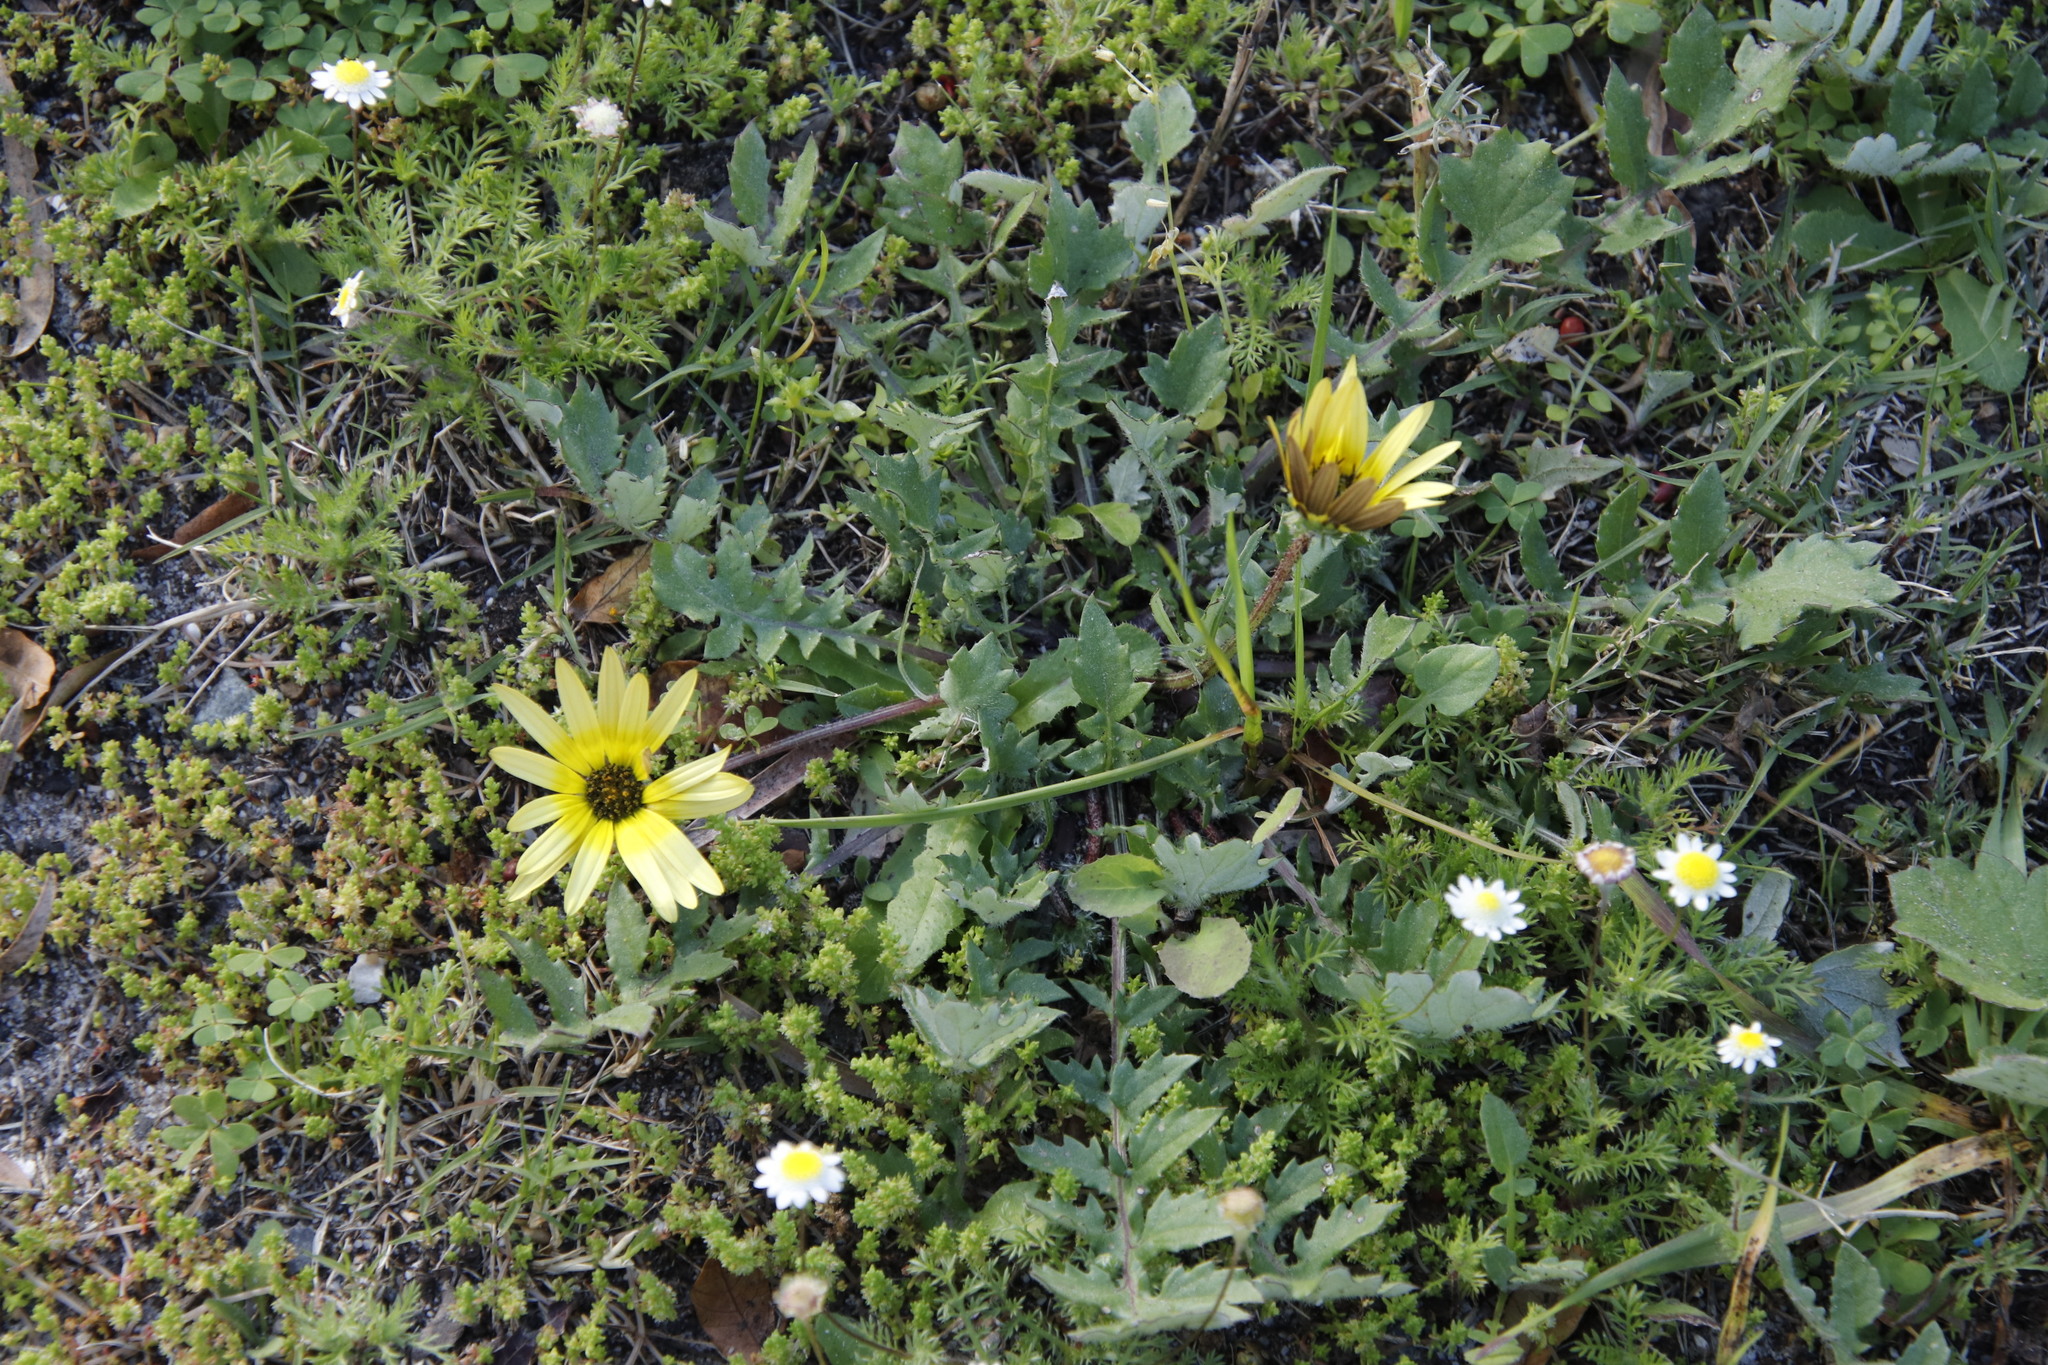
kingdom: Plantae
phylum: Tracheophyta
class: Magnoliopsida
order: Asterales
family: Asteraceae
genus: Arctotheca
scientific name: Arctotheca calendula
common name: Capeweed
